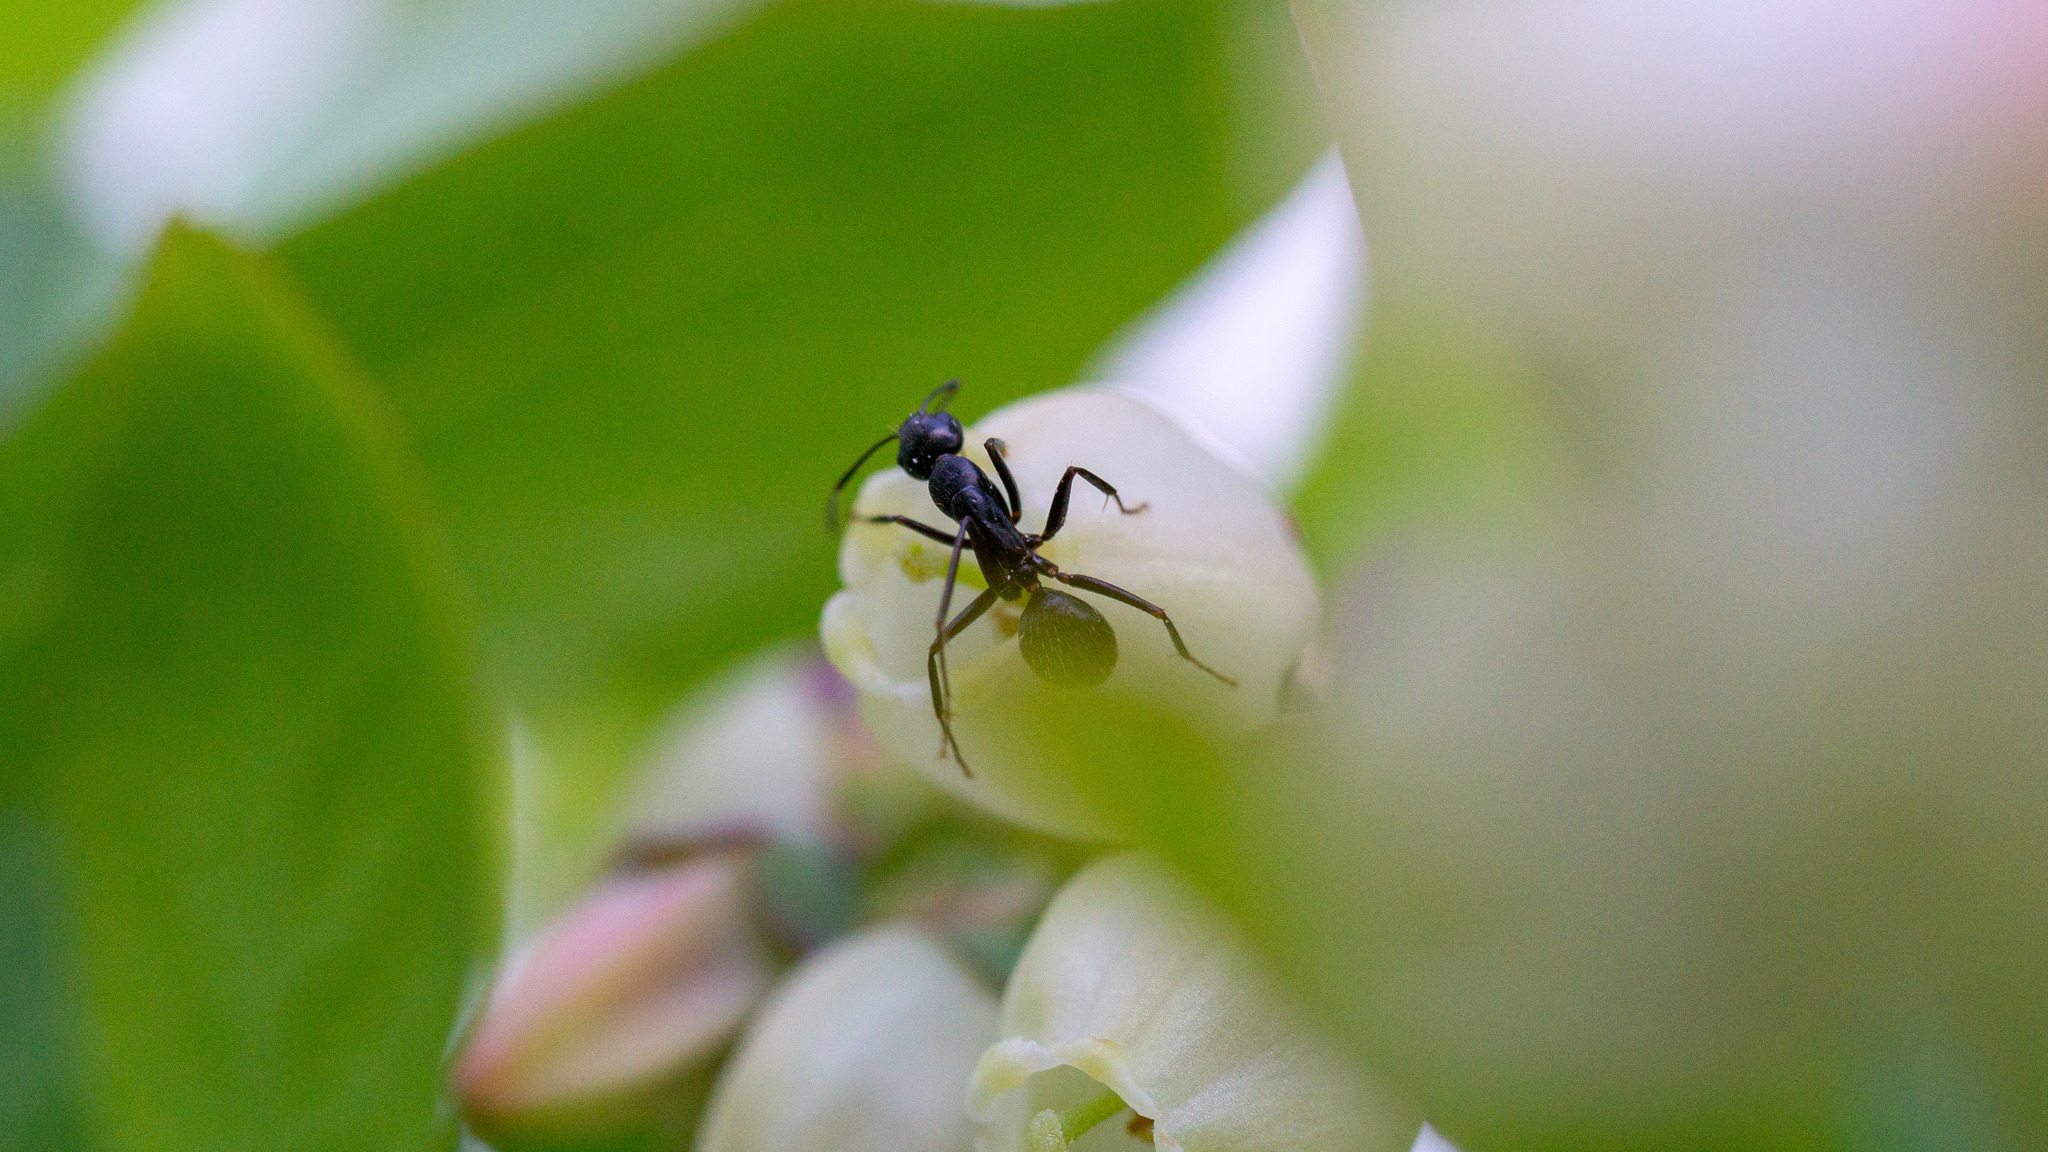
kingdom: Animalia
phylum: Arthropoda
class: Insecta
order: Hymenoptera
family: Formicidae
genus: Camponotus
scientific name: Camponotus pennsylvanicus
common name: Black carpenter ant
